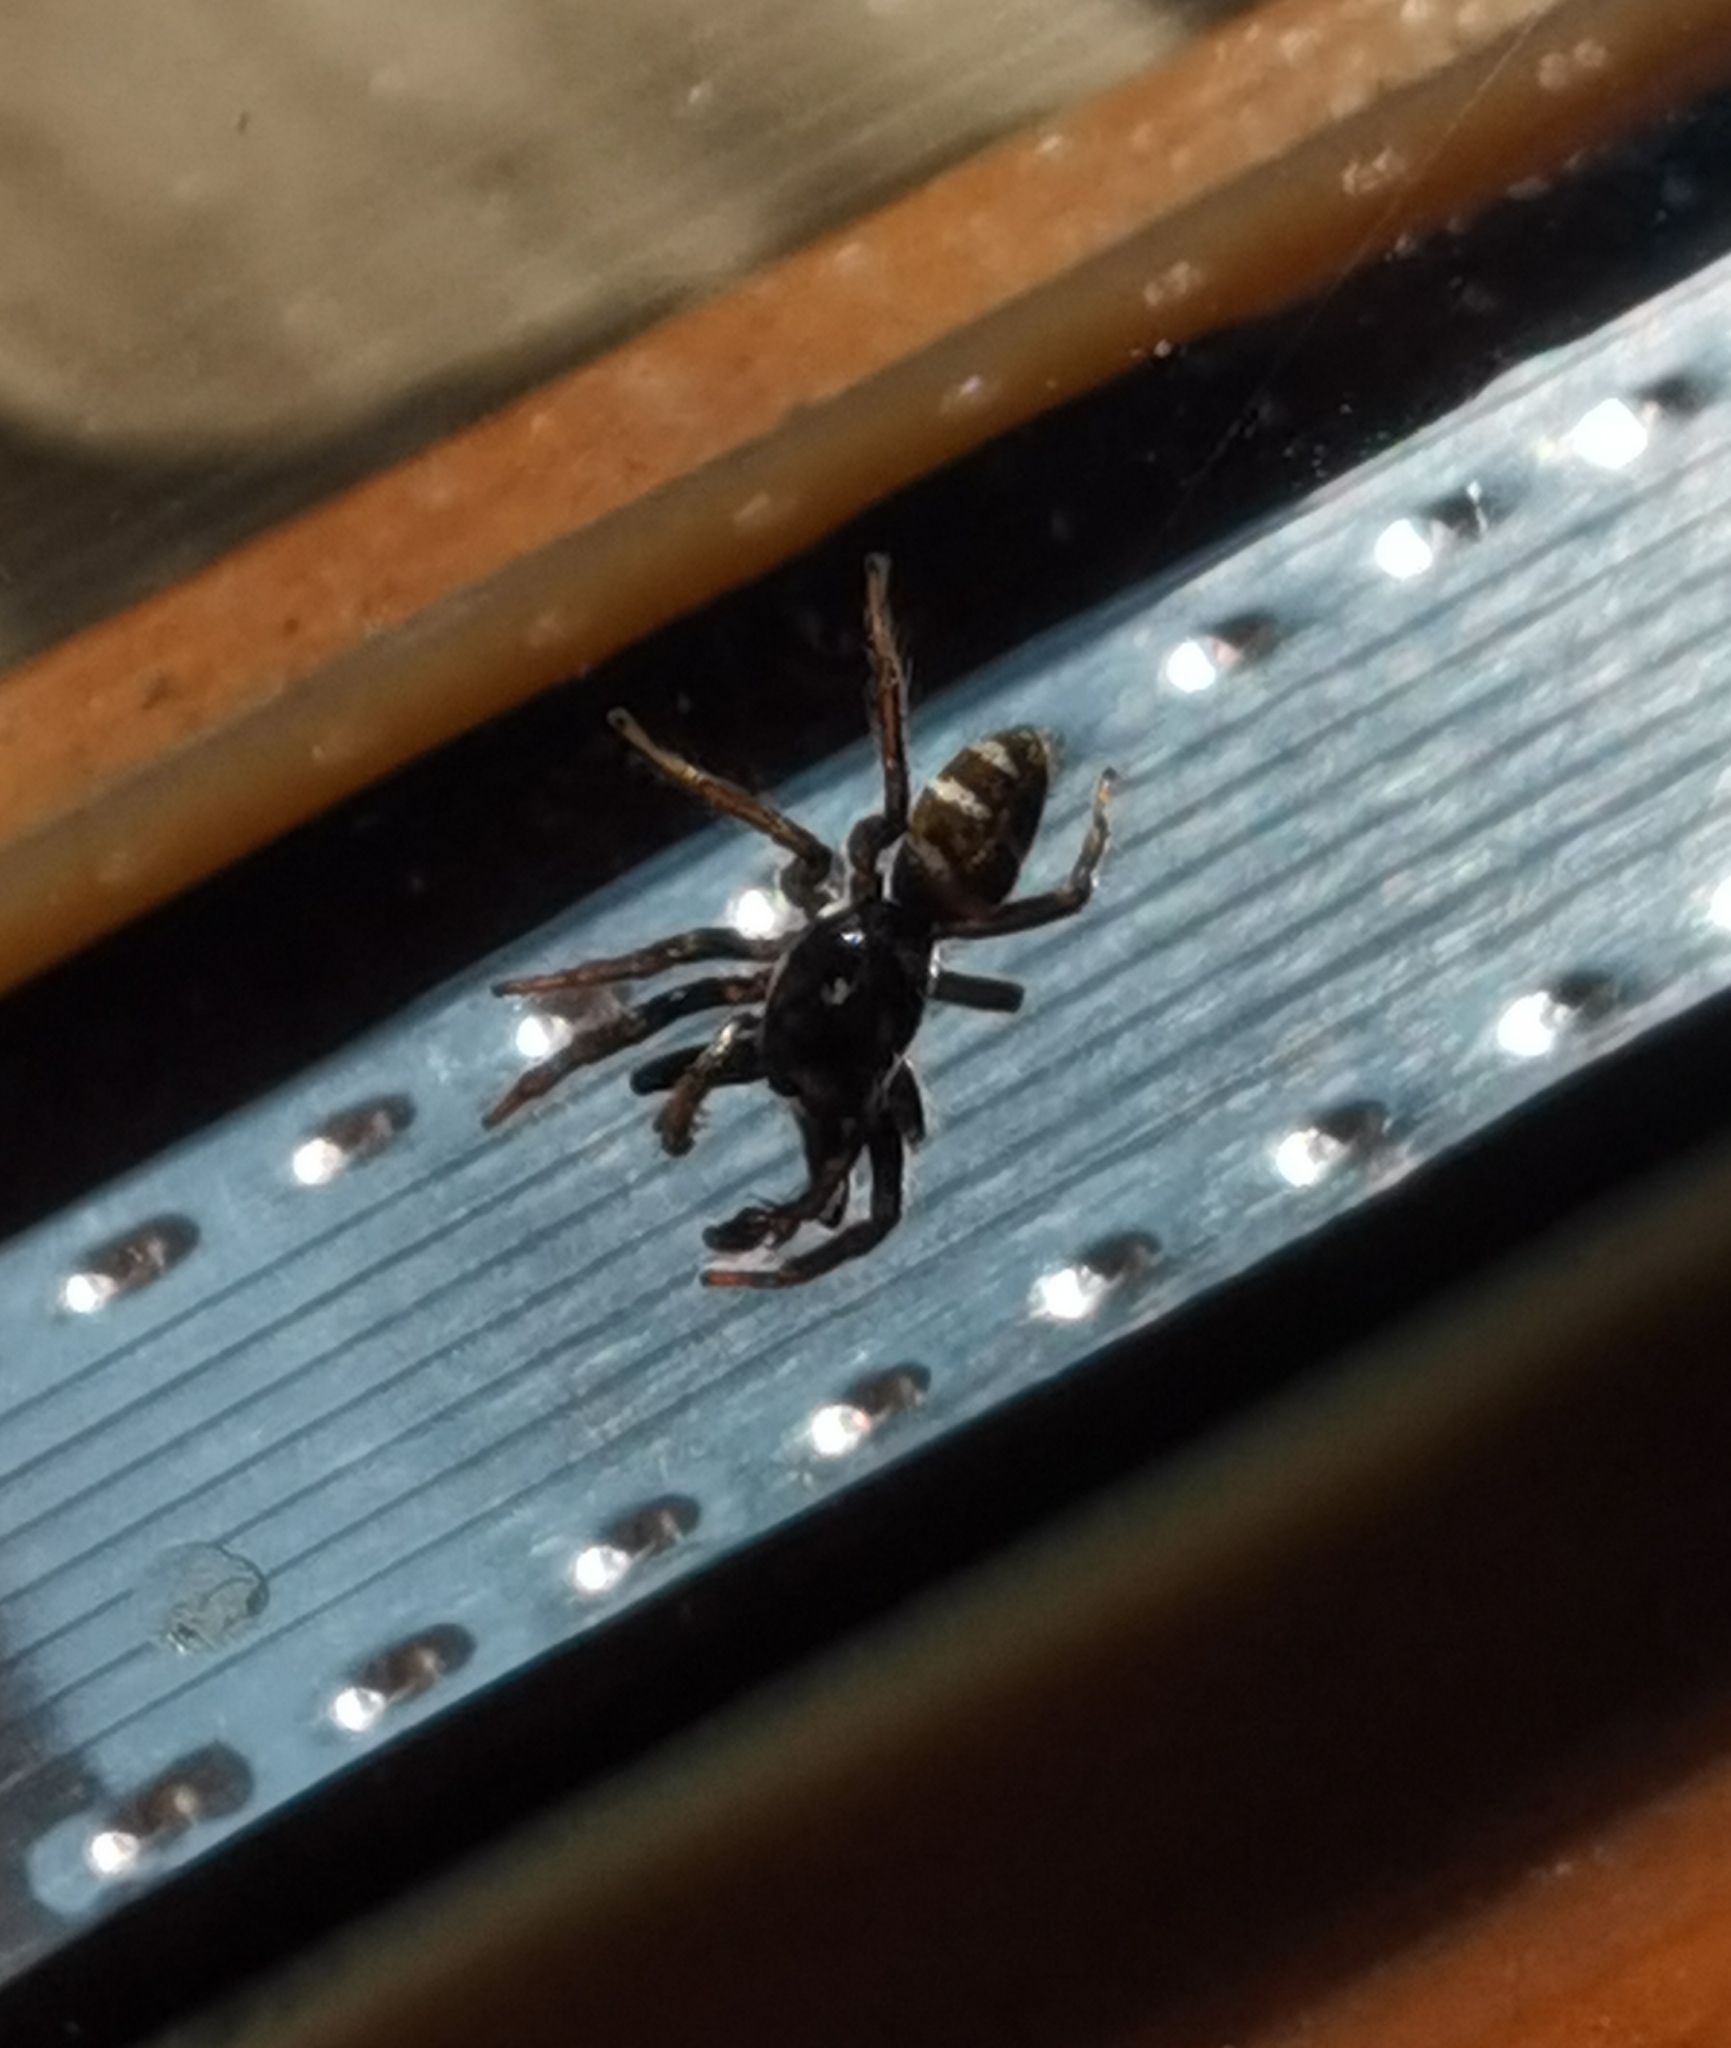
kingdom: Animalia
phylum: Arthropoda
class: Arachnida
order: Araneae
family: Salticidae
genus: Salticus
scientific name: Salticus scenicus
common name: Zebra jumper
